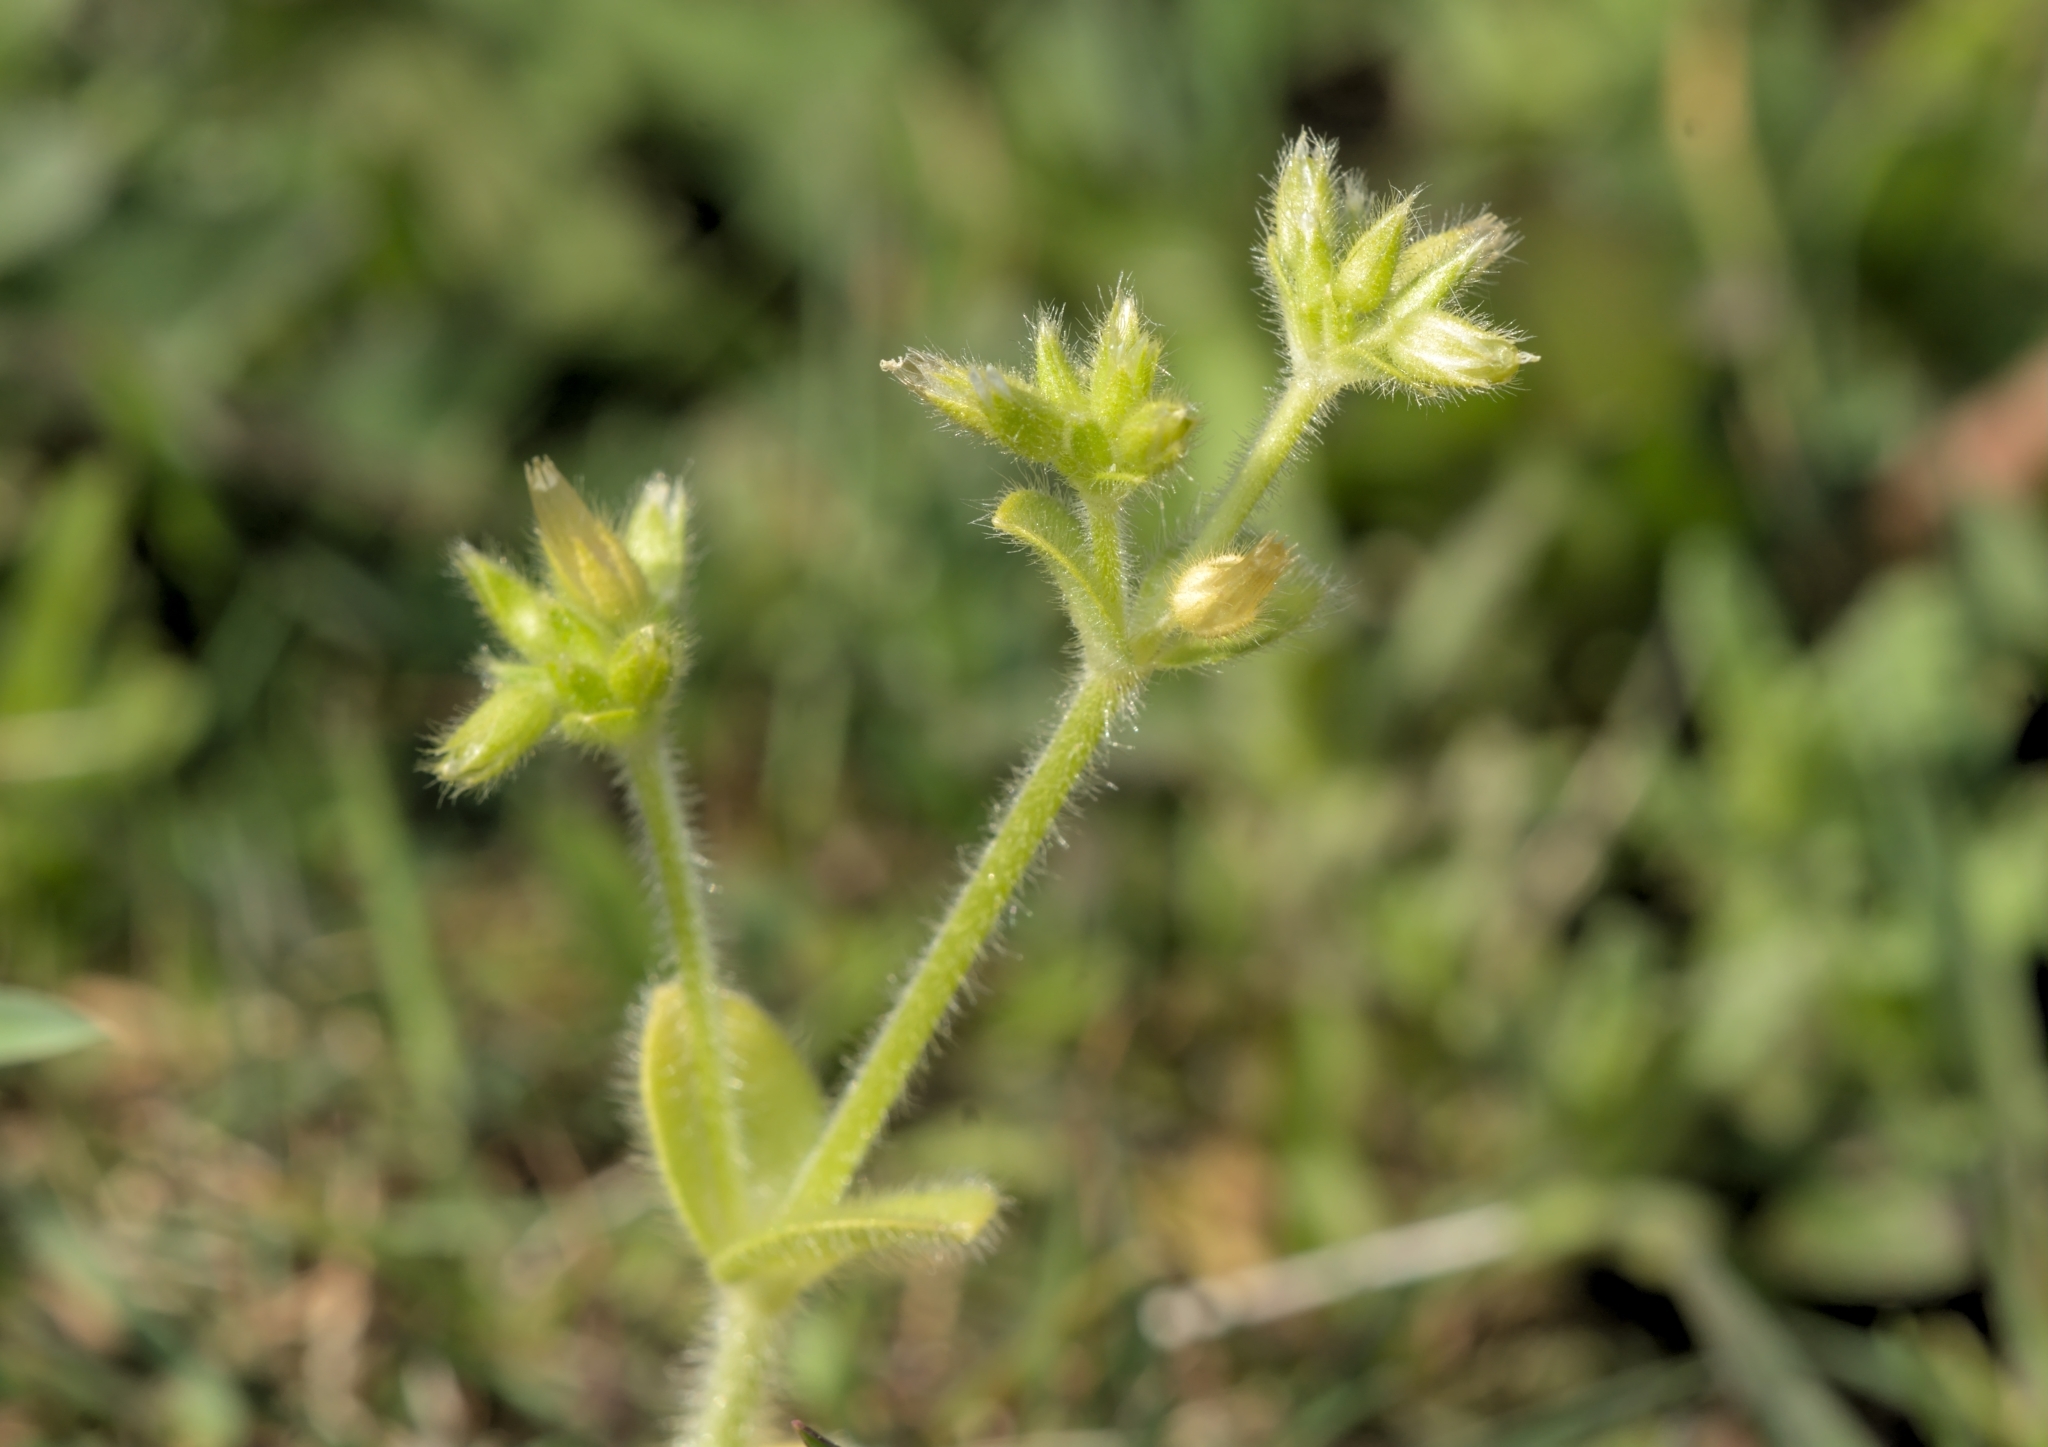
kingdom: Plantae
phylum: Tracheophyta
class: Magnoliopsida
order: Caryophyllales
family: Caryophyllaceae
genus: Cerastium
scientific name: Cerastium glomeratum
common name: Sticky chickweed
